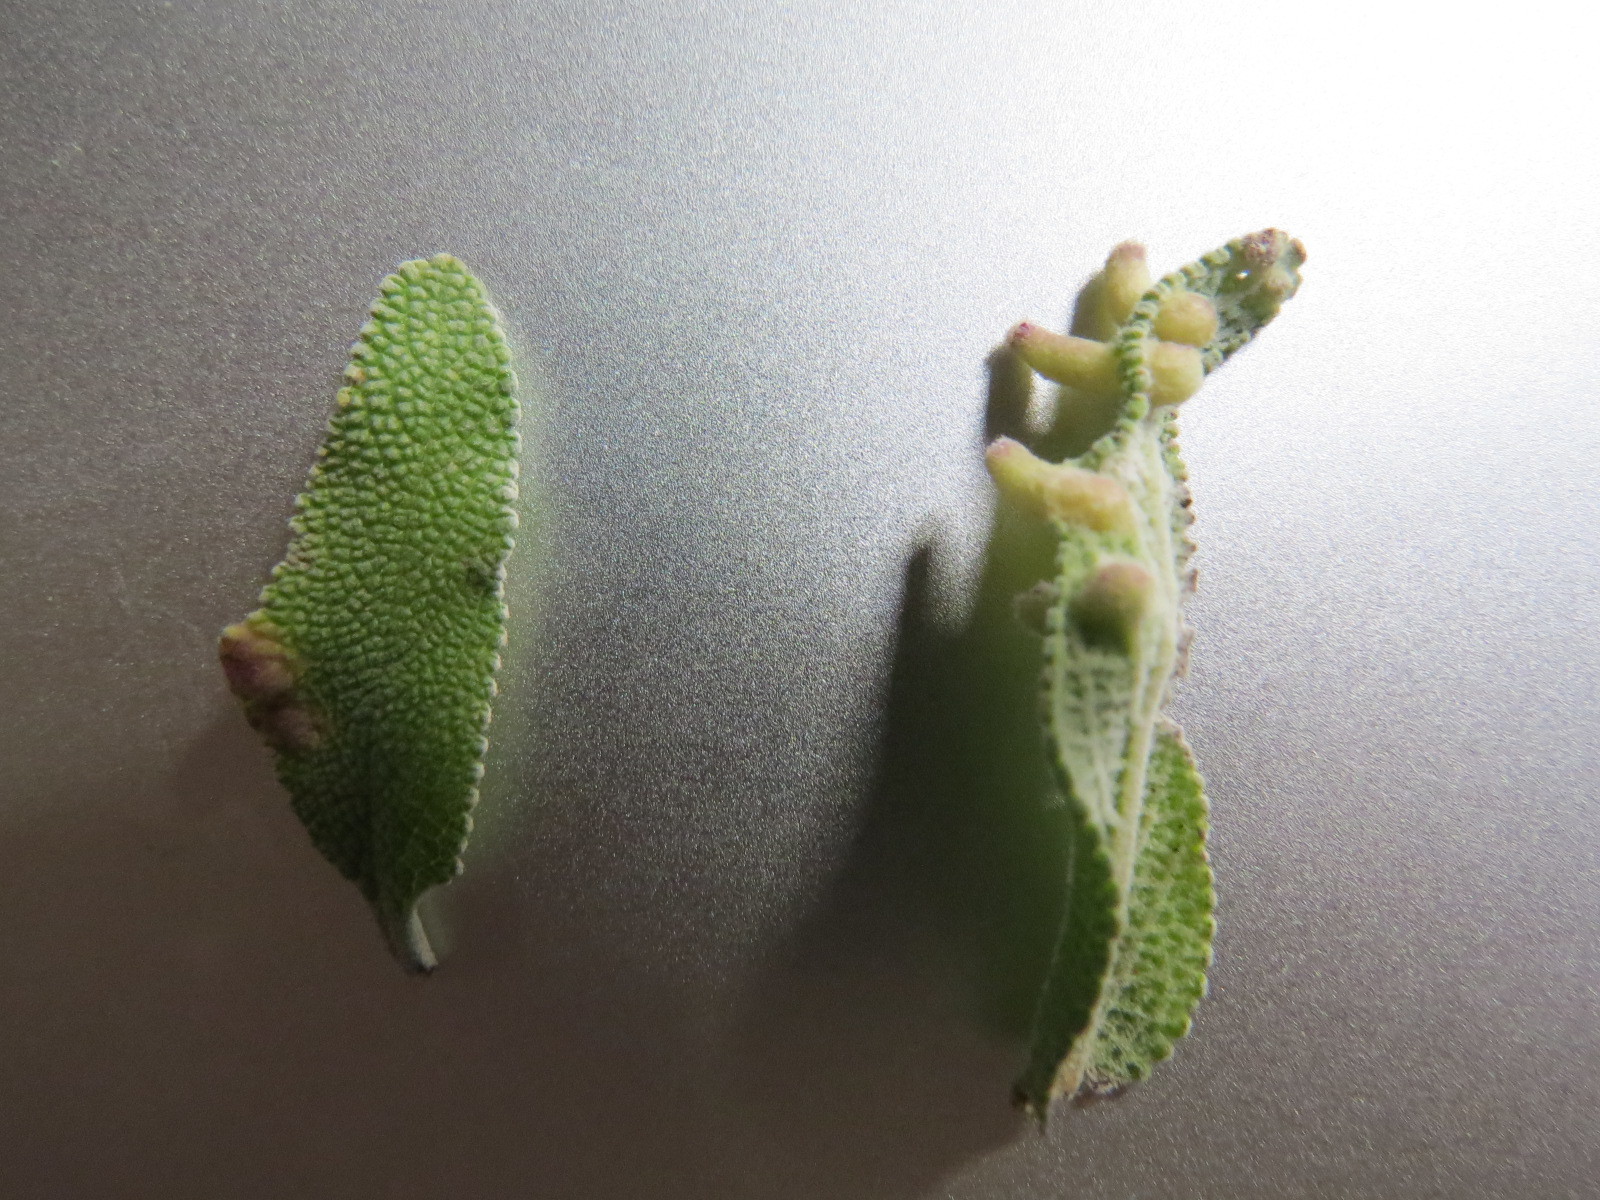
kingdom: Animalia
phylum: Arthropoda
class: Insecta
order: Diptera
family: Cecidomyiidae
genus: Rhopalomyia
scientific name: Rhopalomyia audibertiae
